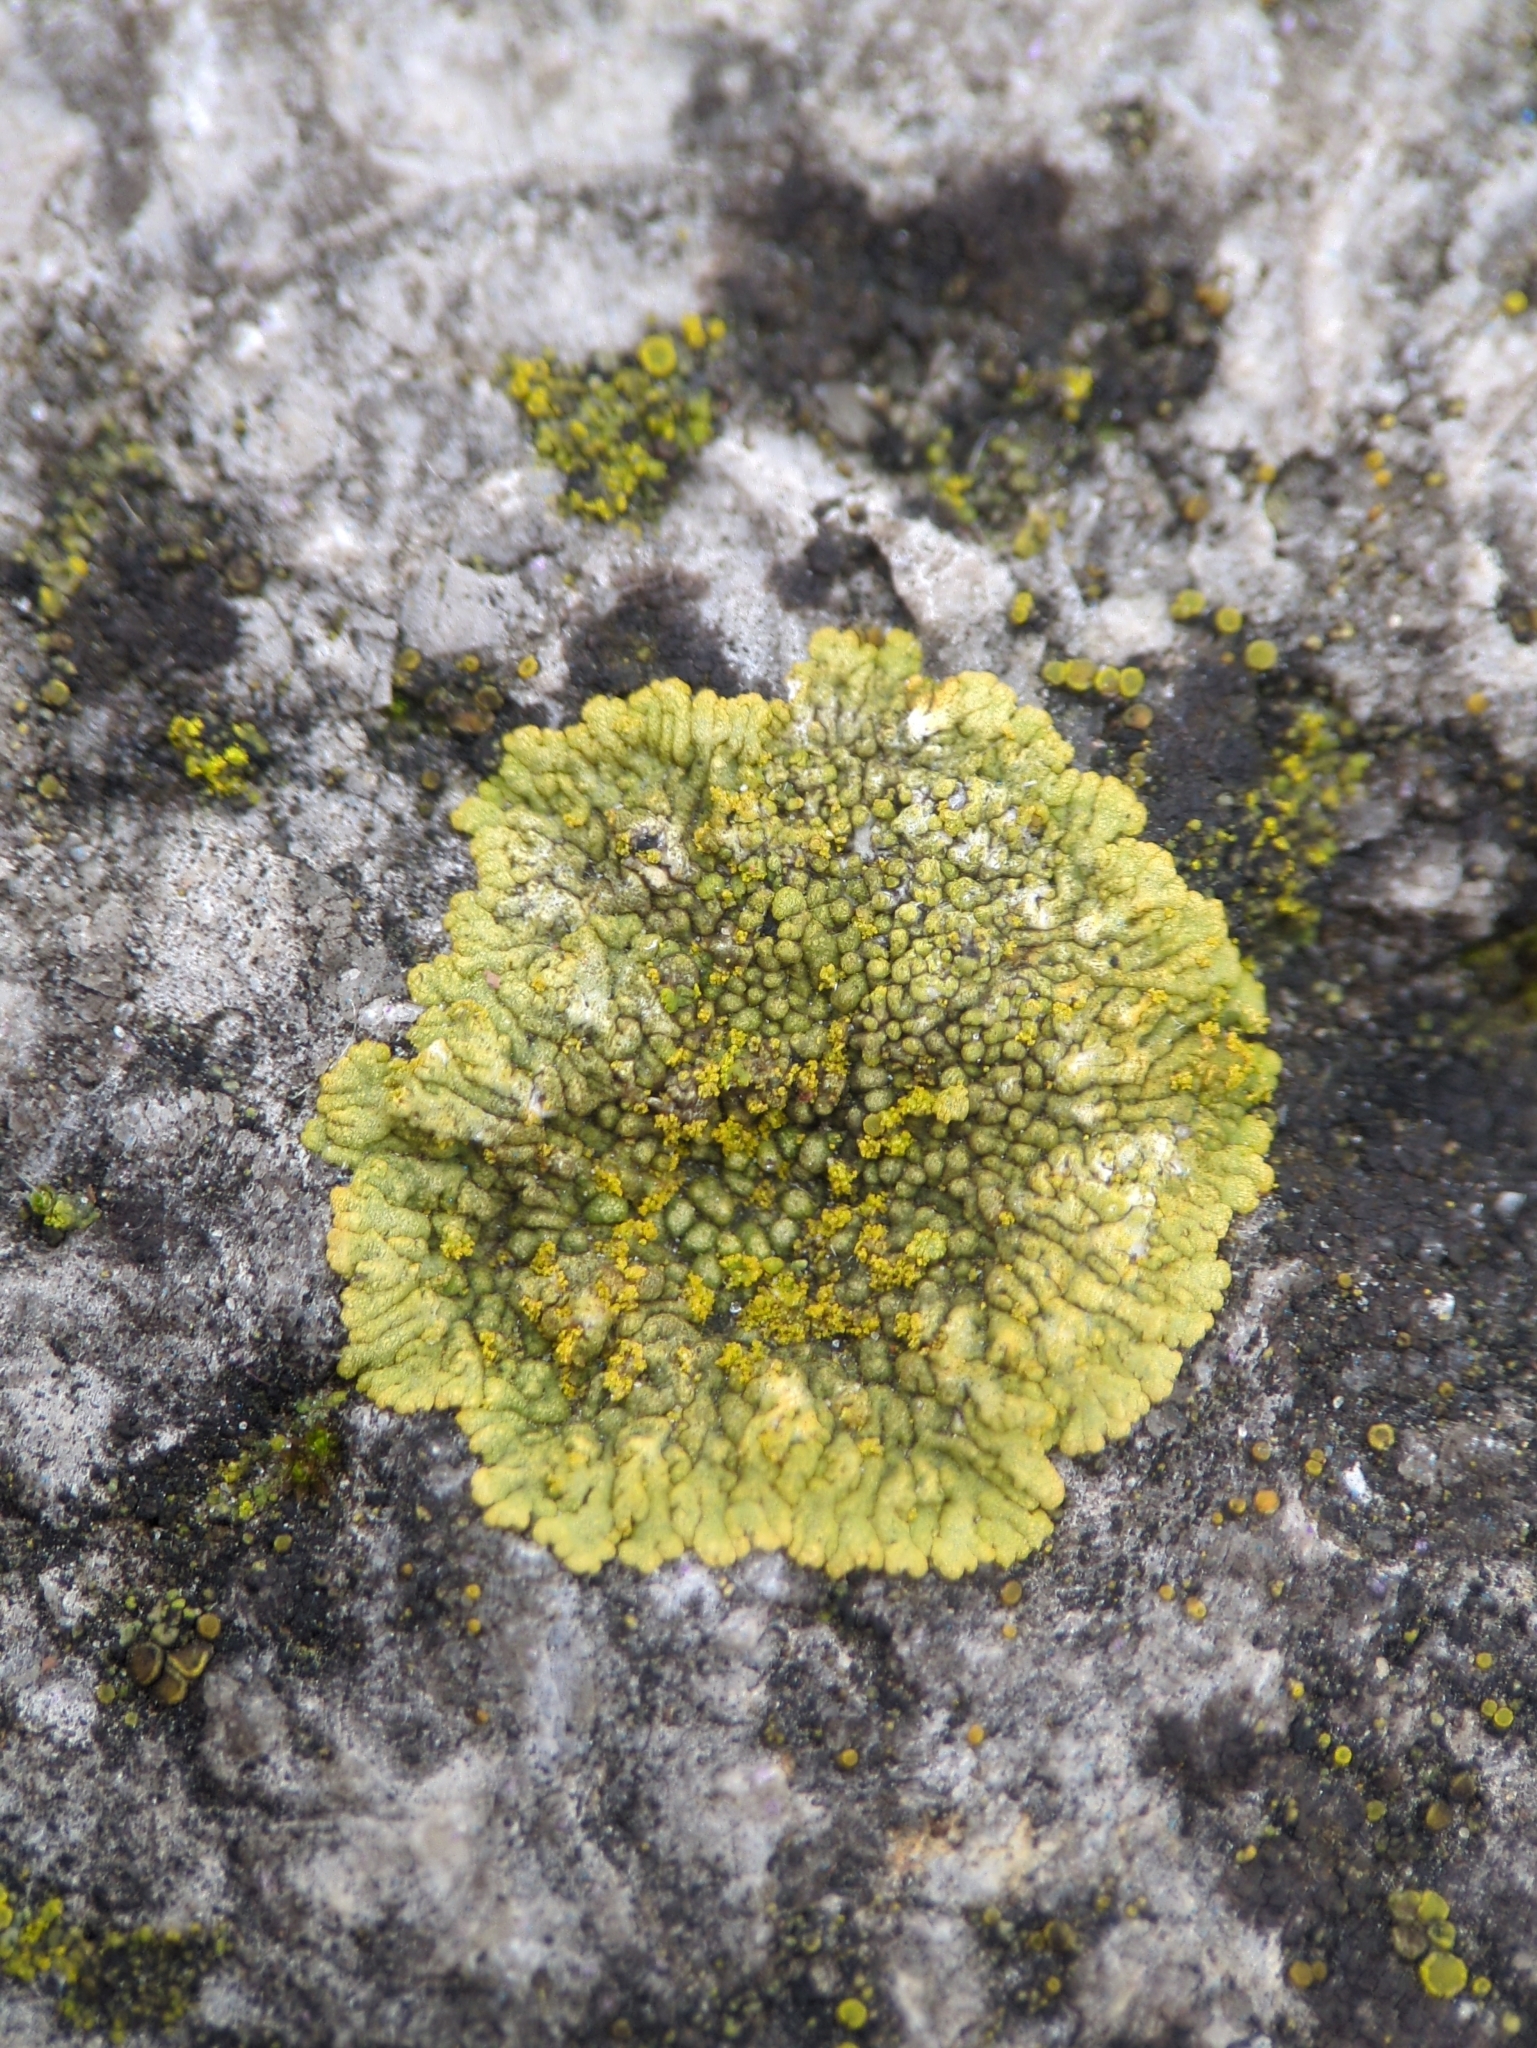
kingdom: Fungi
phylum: Ascomycota
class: Lecanoromycetes
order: Teloschistales
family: Teloschistaceae
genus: Calogaya
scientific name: Calogaya decipiens
